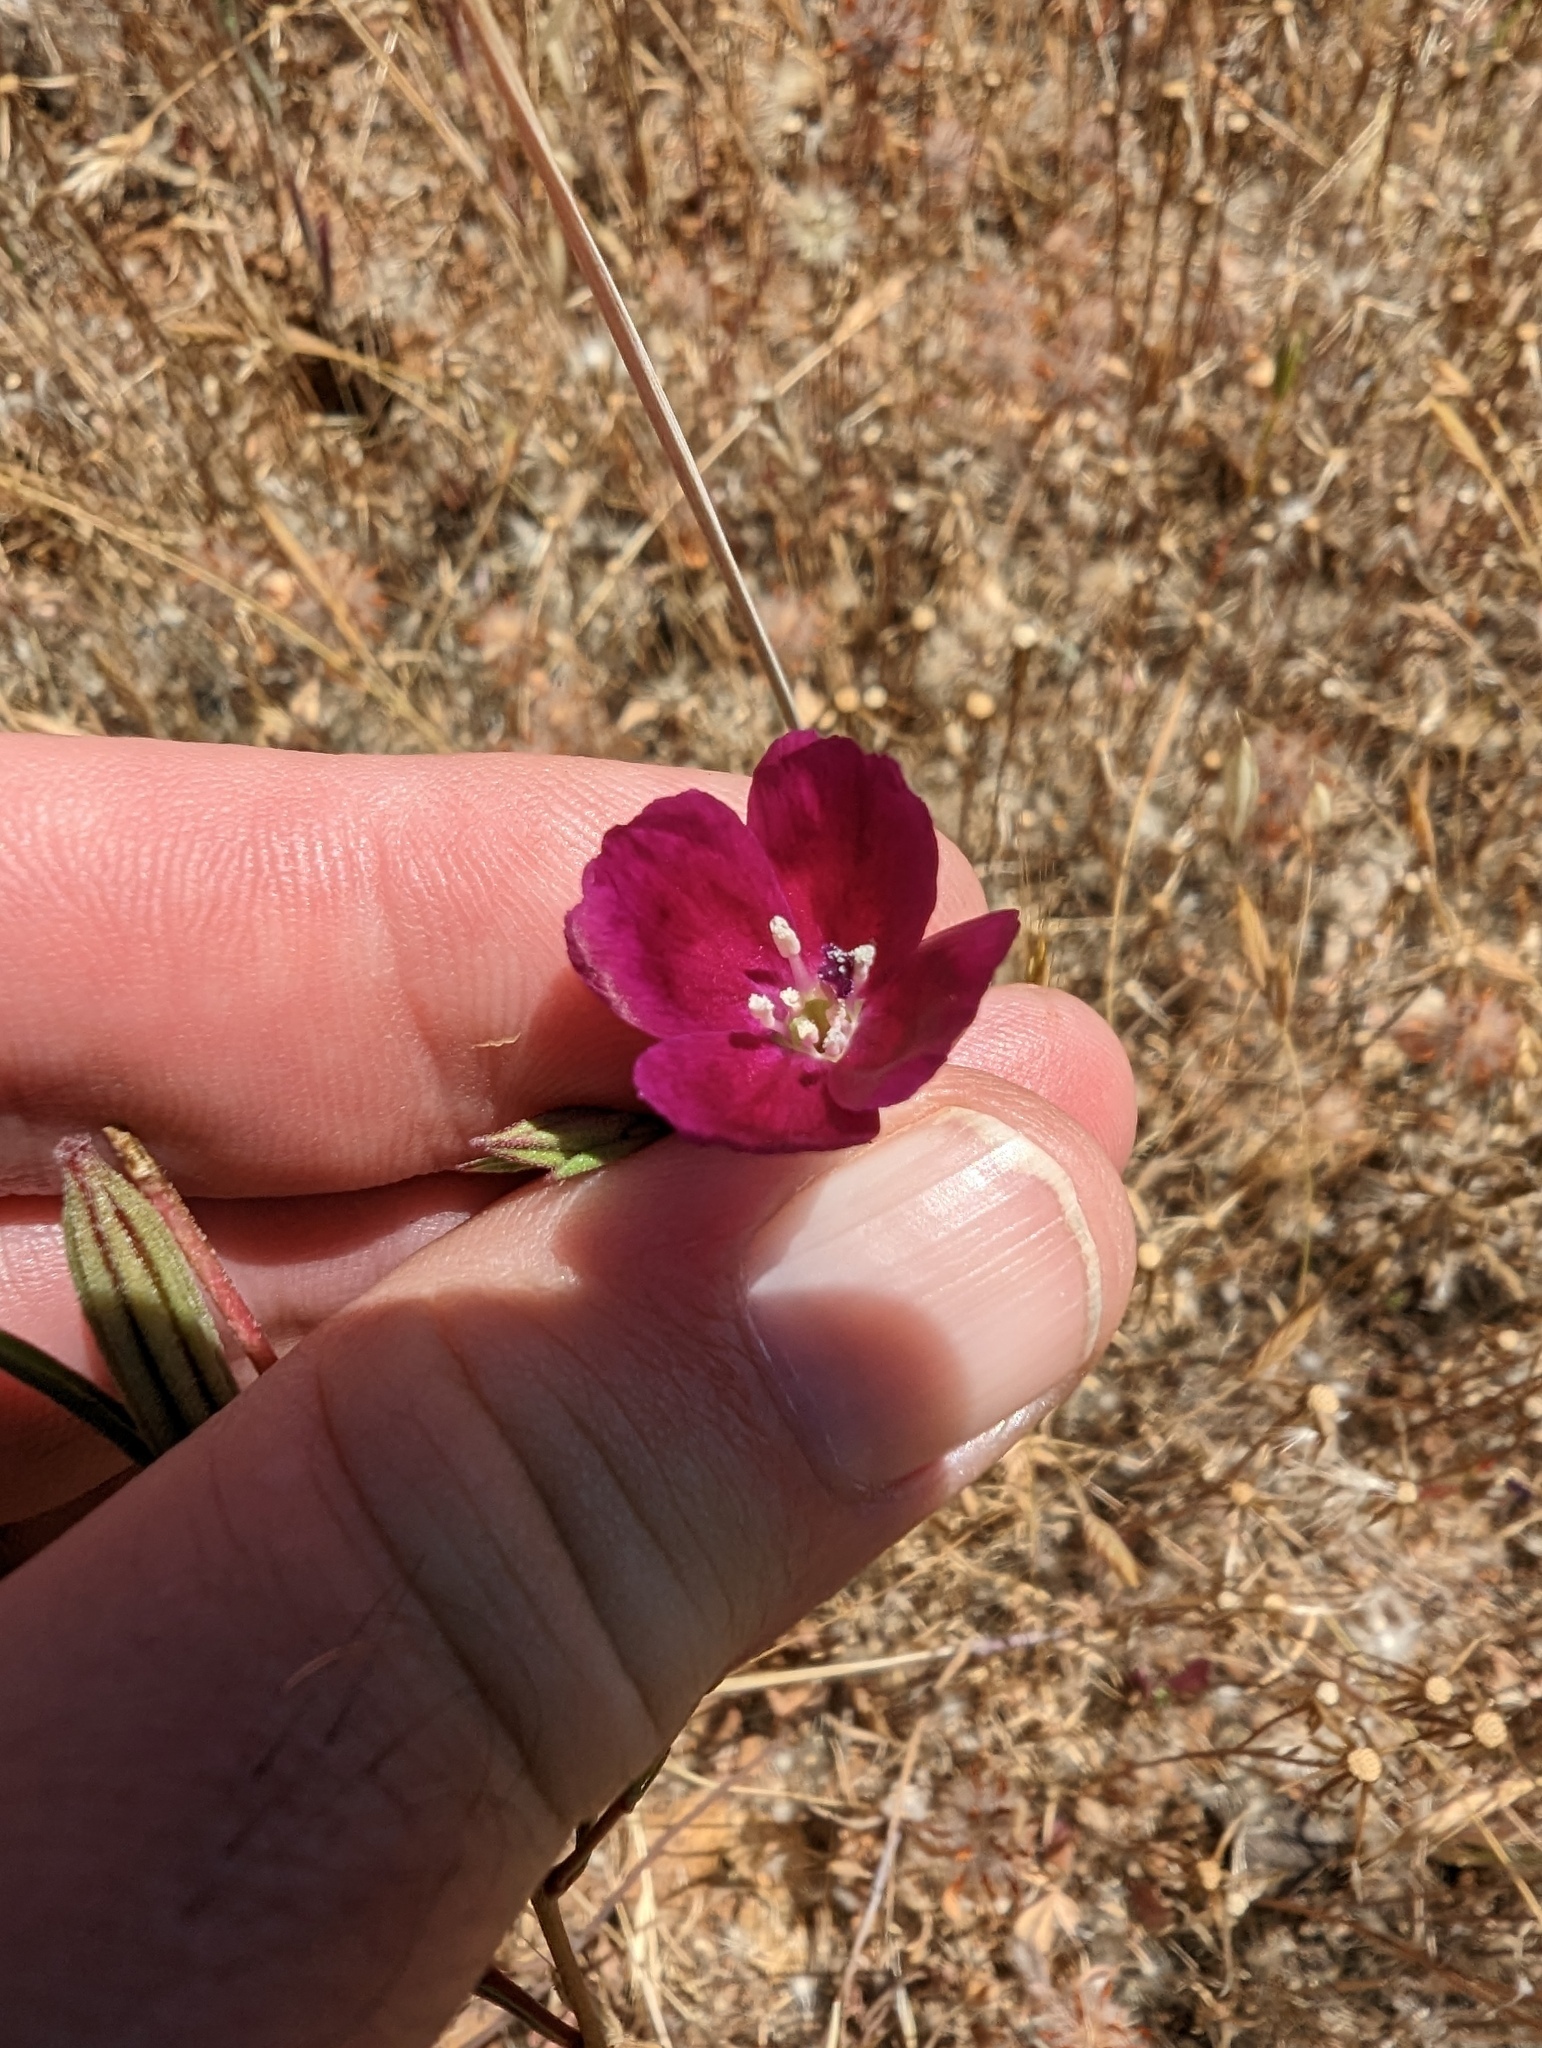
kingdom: Plantae
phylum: Tracheophyta
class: Magnoliopsida
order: Myrtales
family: Onagraceae
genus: Clarkia
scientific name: Clarkia purpurea
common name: Purple clarkia
